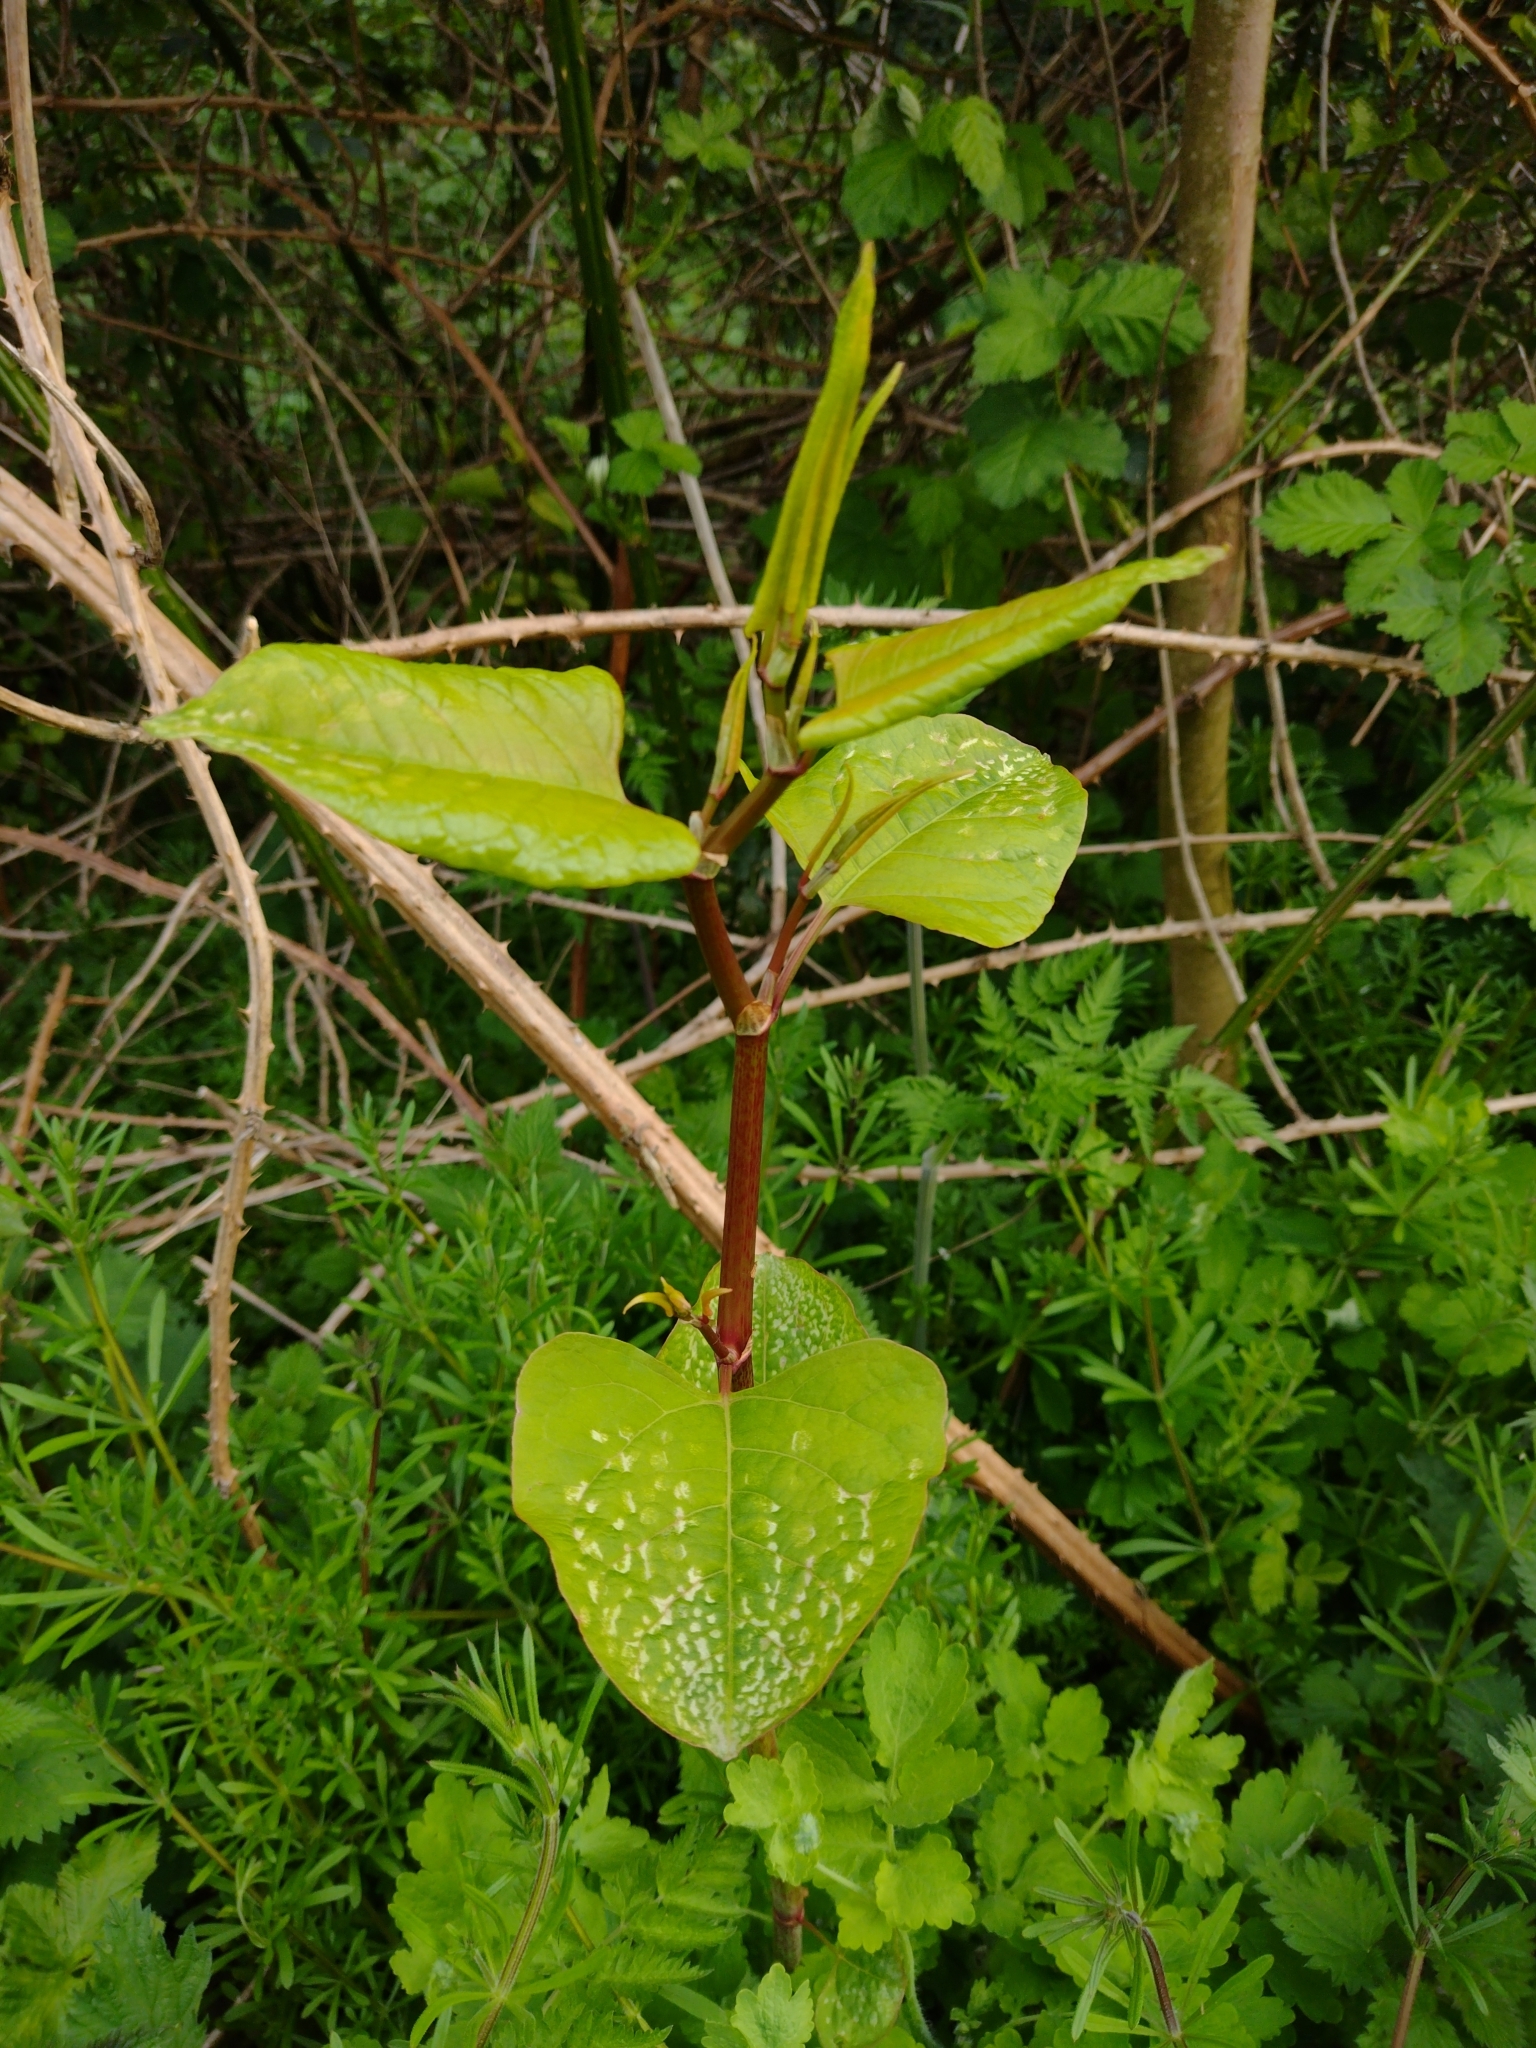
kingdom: Plantae
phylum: Tracheophyta
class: Magnoliopsida
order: Caryophyllales
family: Polygonaceae
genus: Reynoutria
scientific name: Reynoutria japonica
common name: Japanese knotweed
